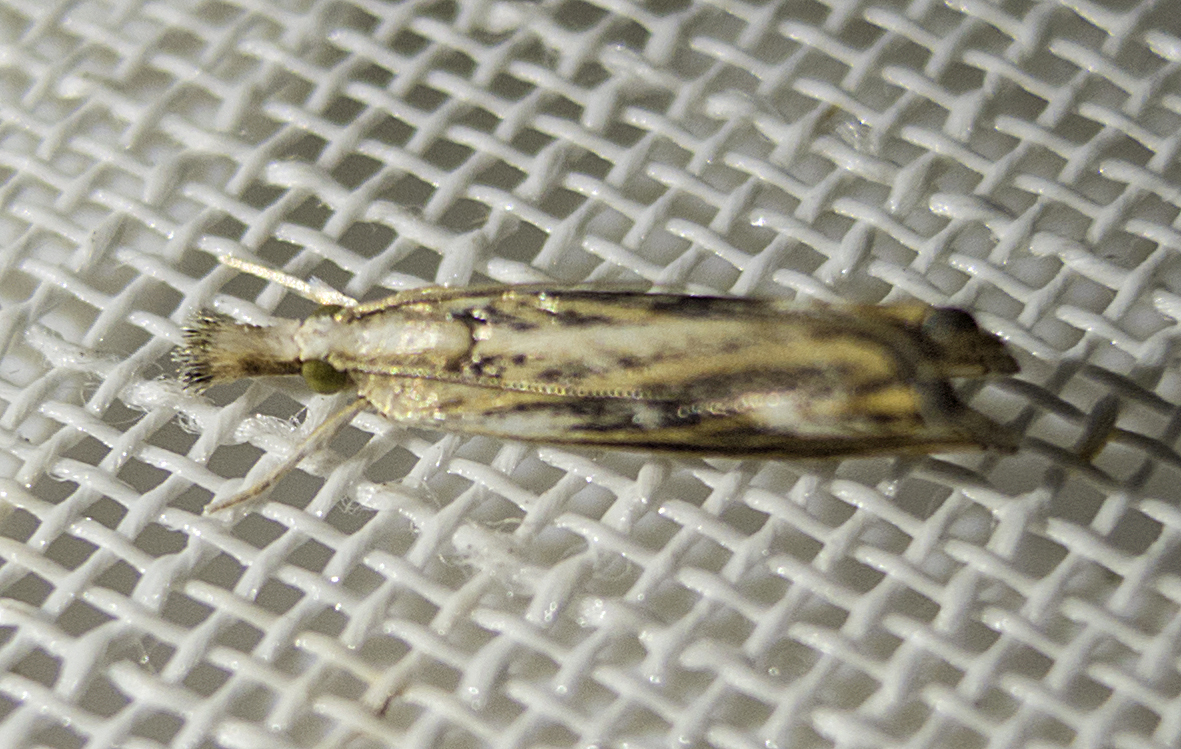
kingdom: Animalia
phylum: Arthropoda
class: Insecta
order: Lepidoptera
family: Crambidae
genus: Ancylolomia
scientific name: Ancylolomia
